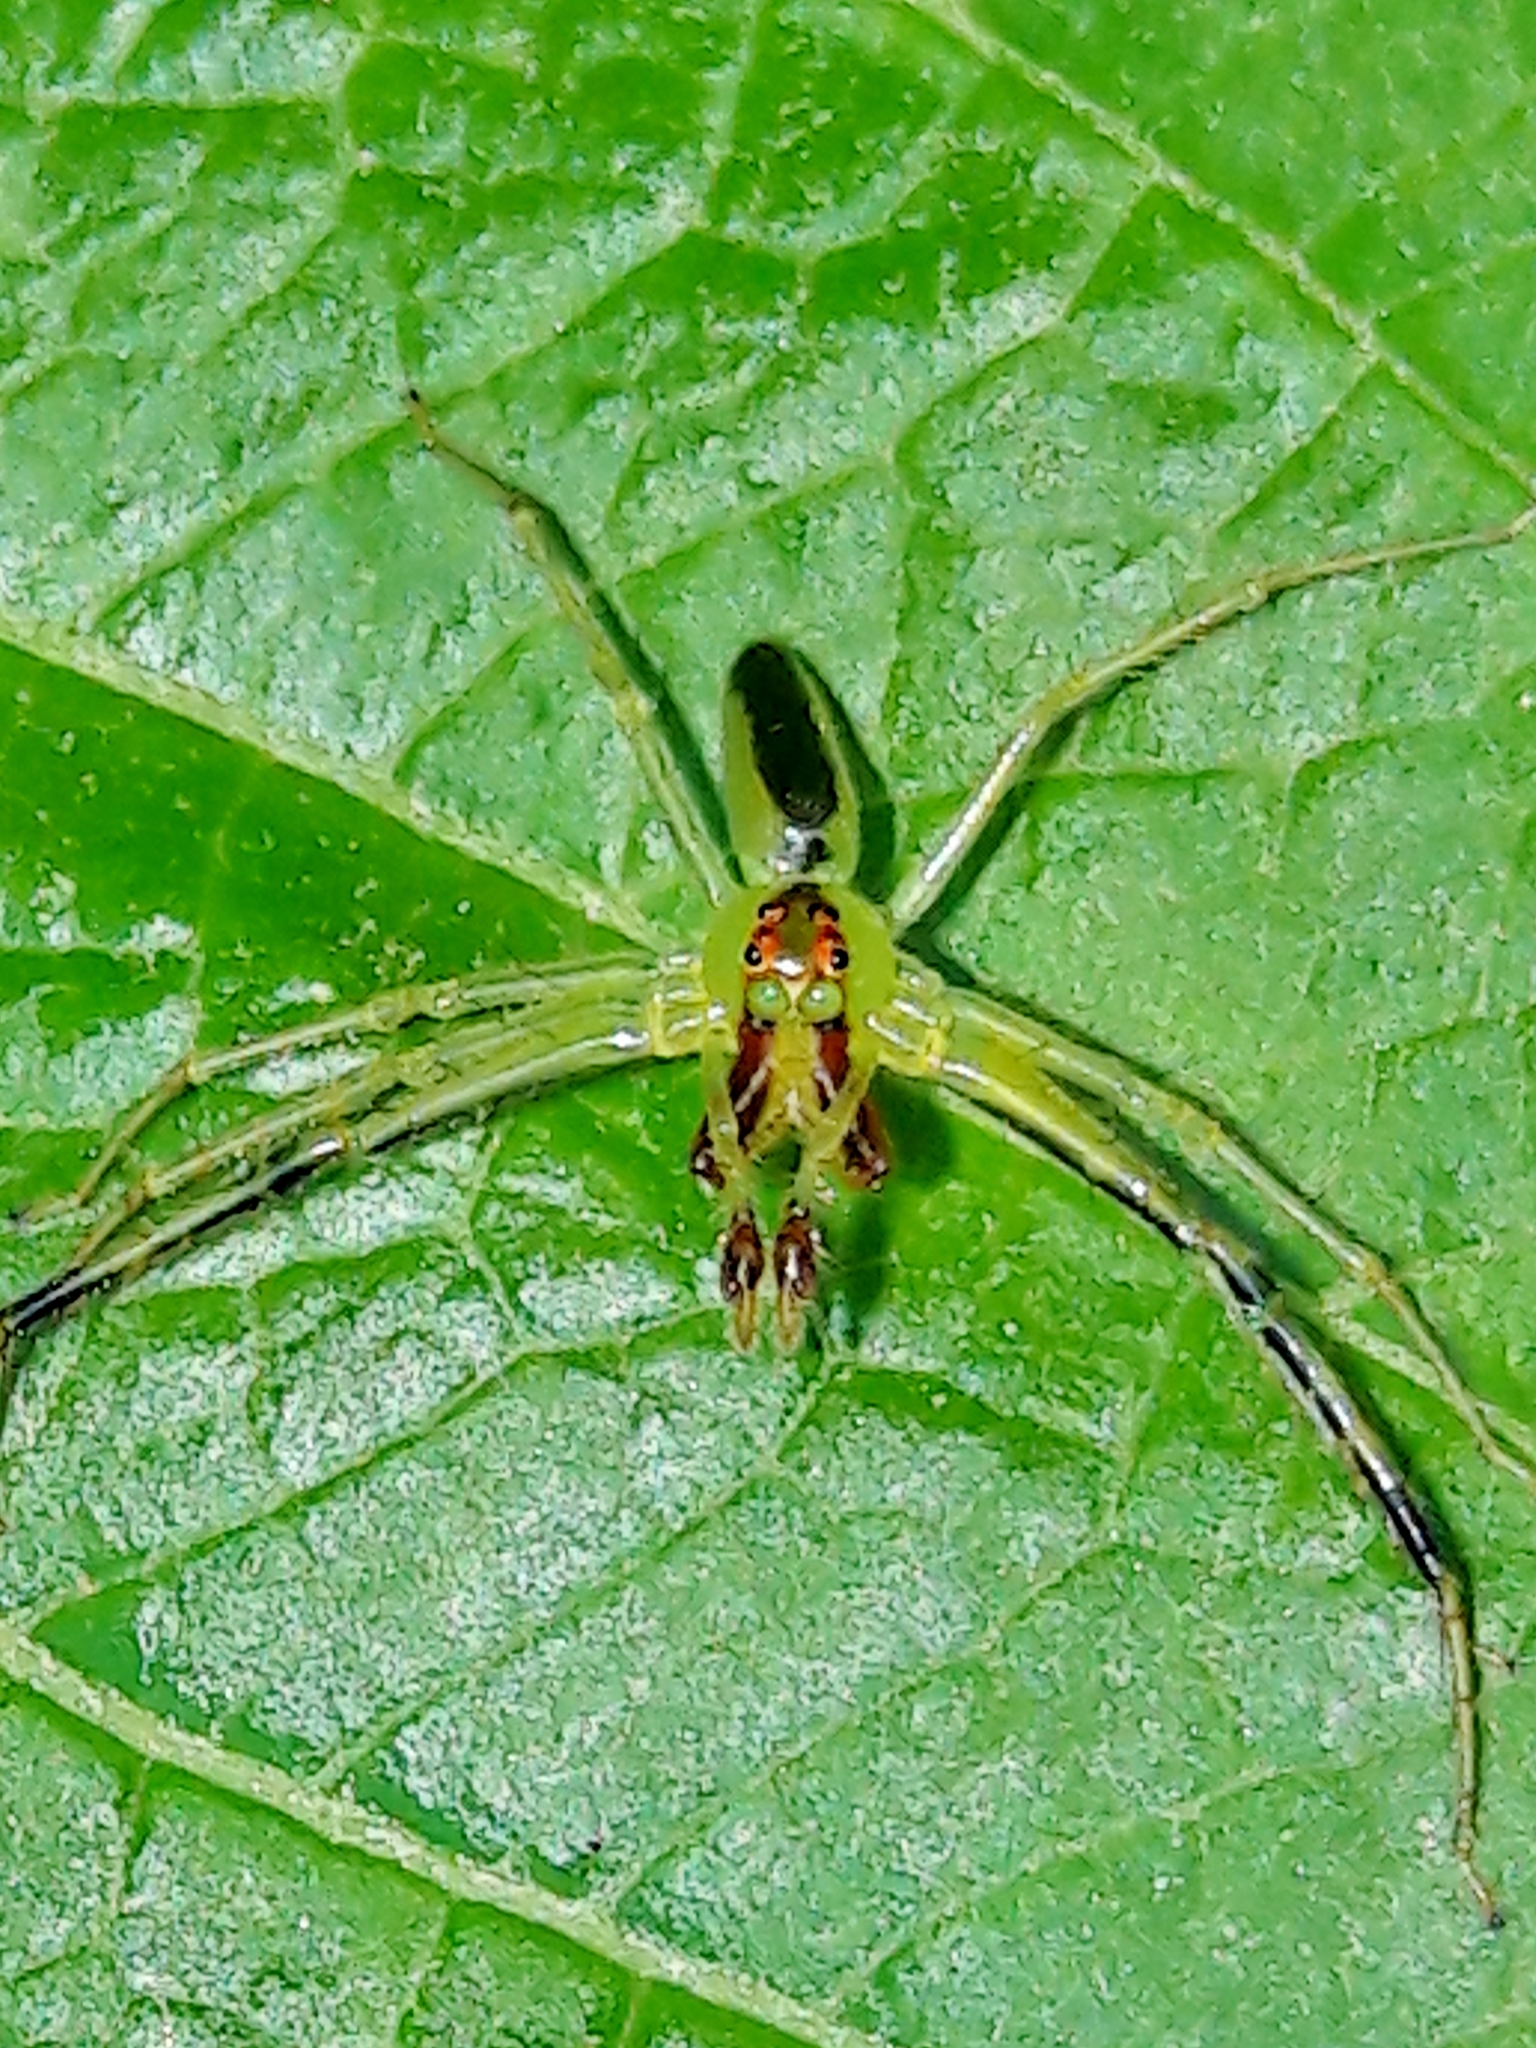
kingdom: Animalia
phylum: Arthropoda
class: Arachnida
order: Araneae
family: Salticidae
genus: Lyssomanes
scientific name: Lyssomanes
